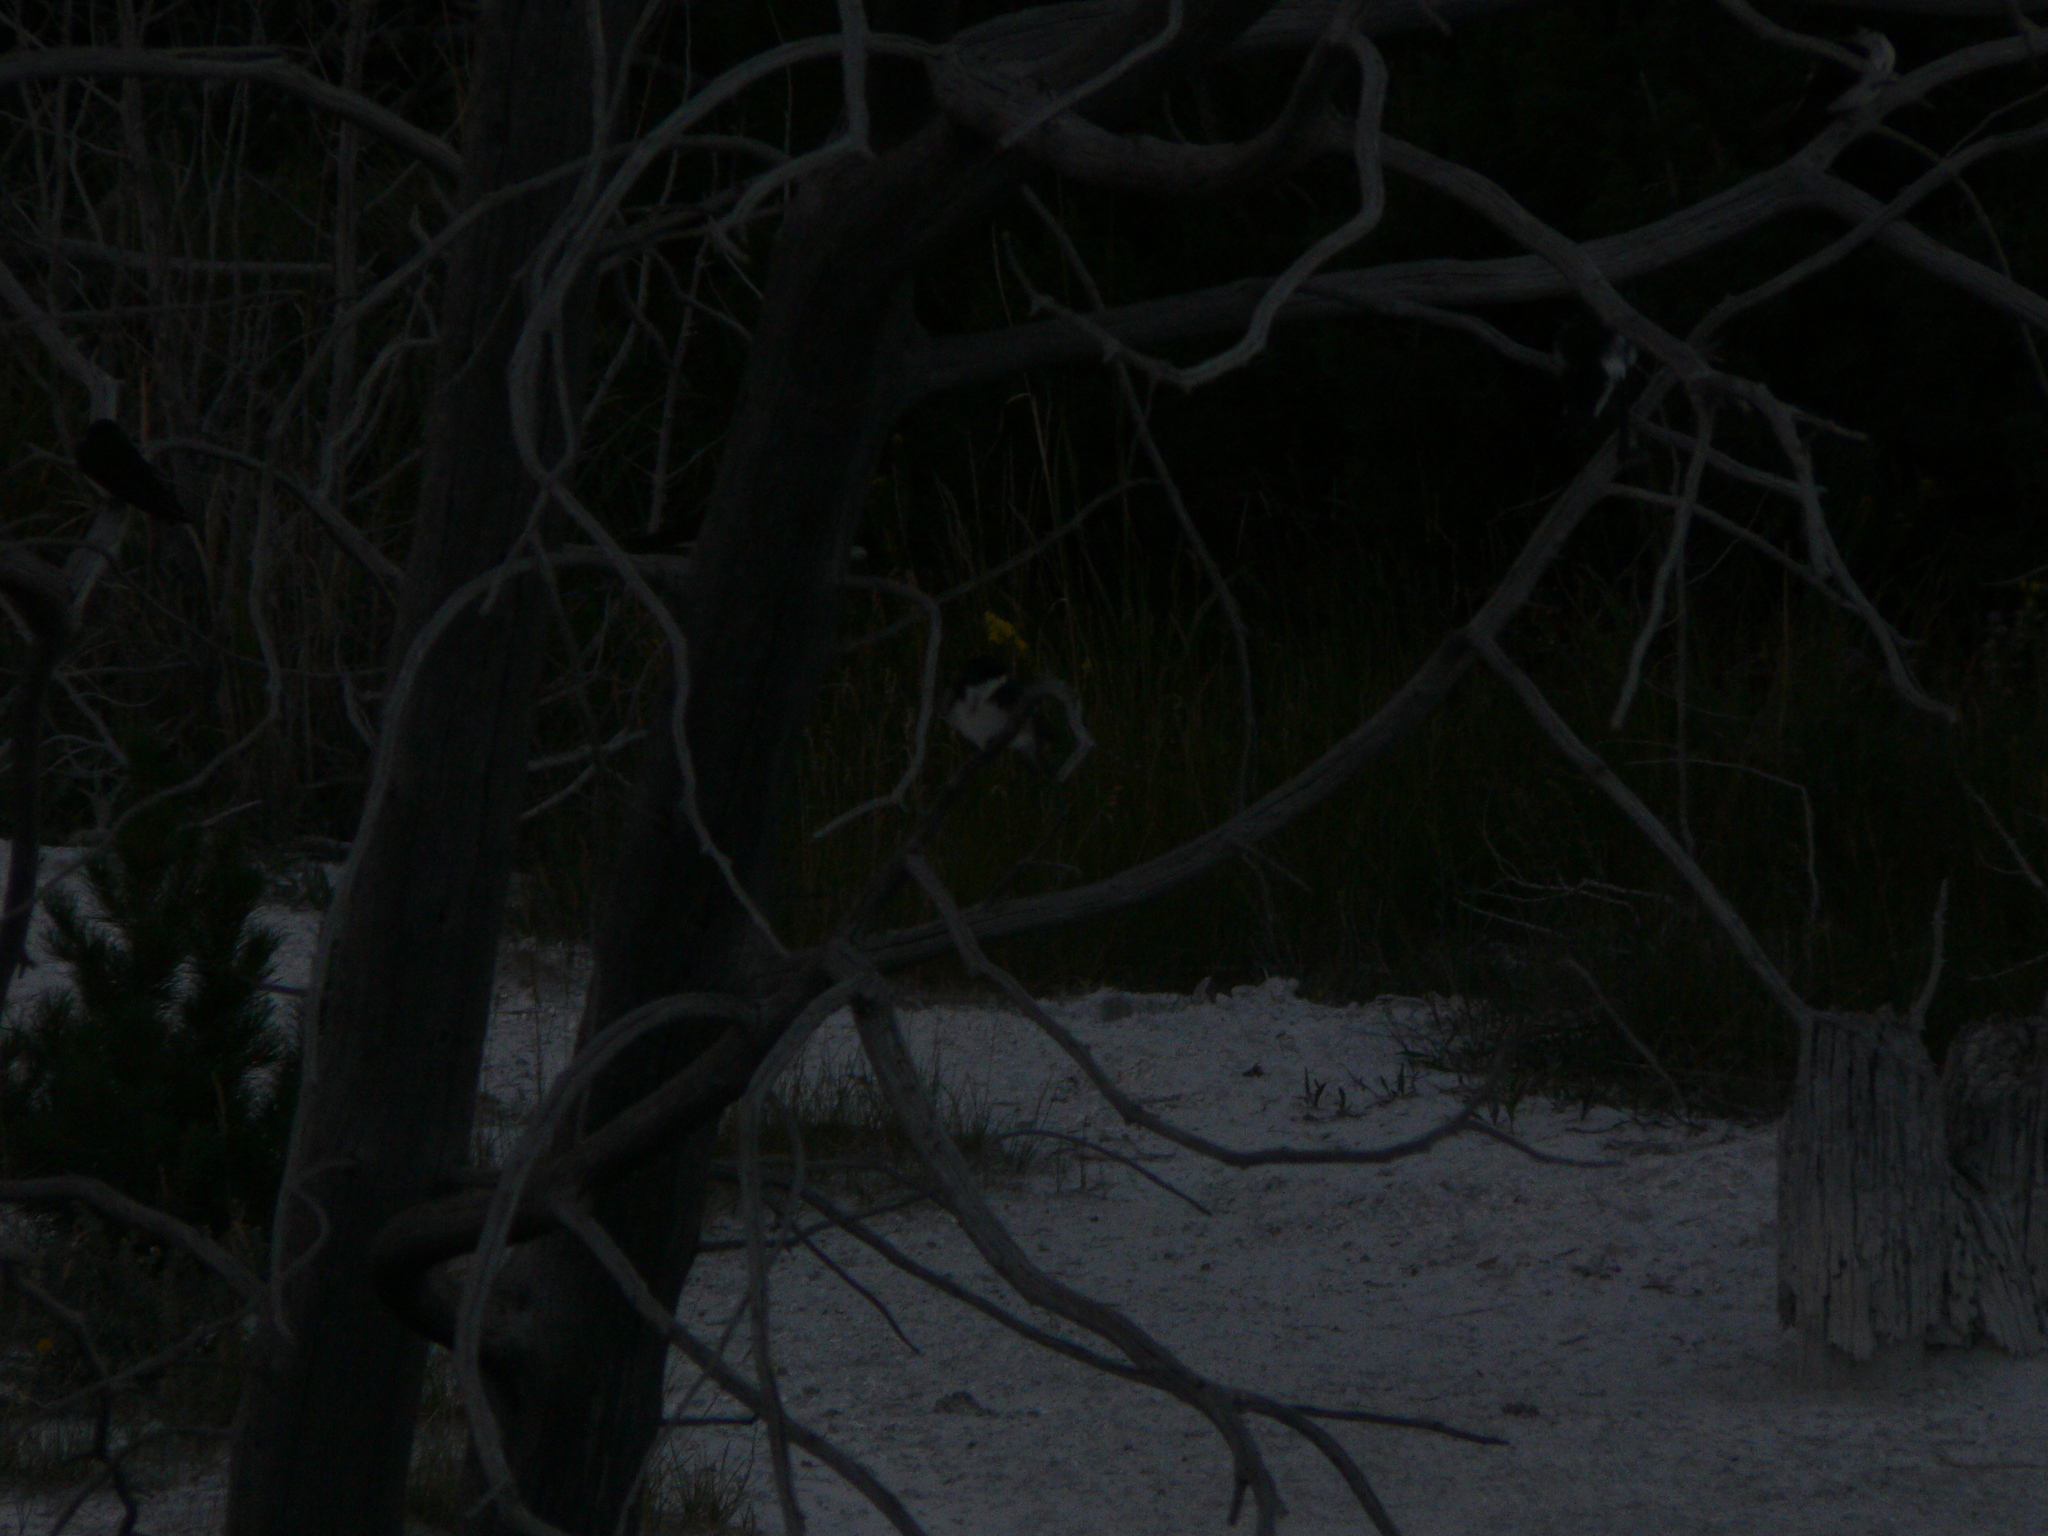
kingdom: Animalia
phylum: Chordata
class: Aves
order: Passeriformes
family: Hirundinidae
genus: Tachycineta
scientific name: Tachycineta bicolor
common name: Tree swallow
